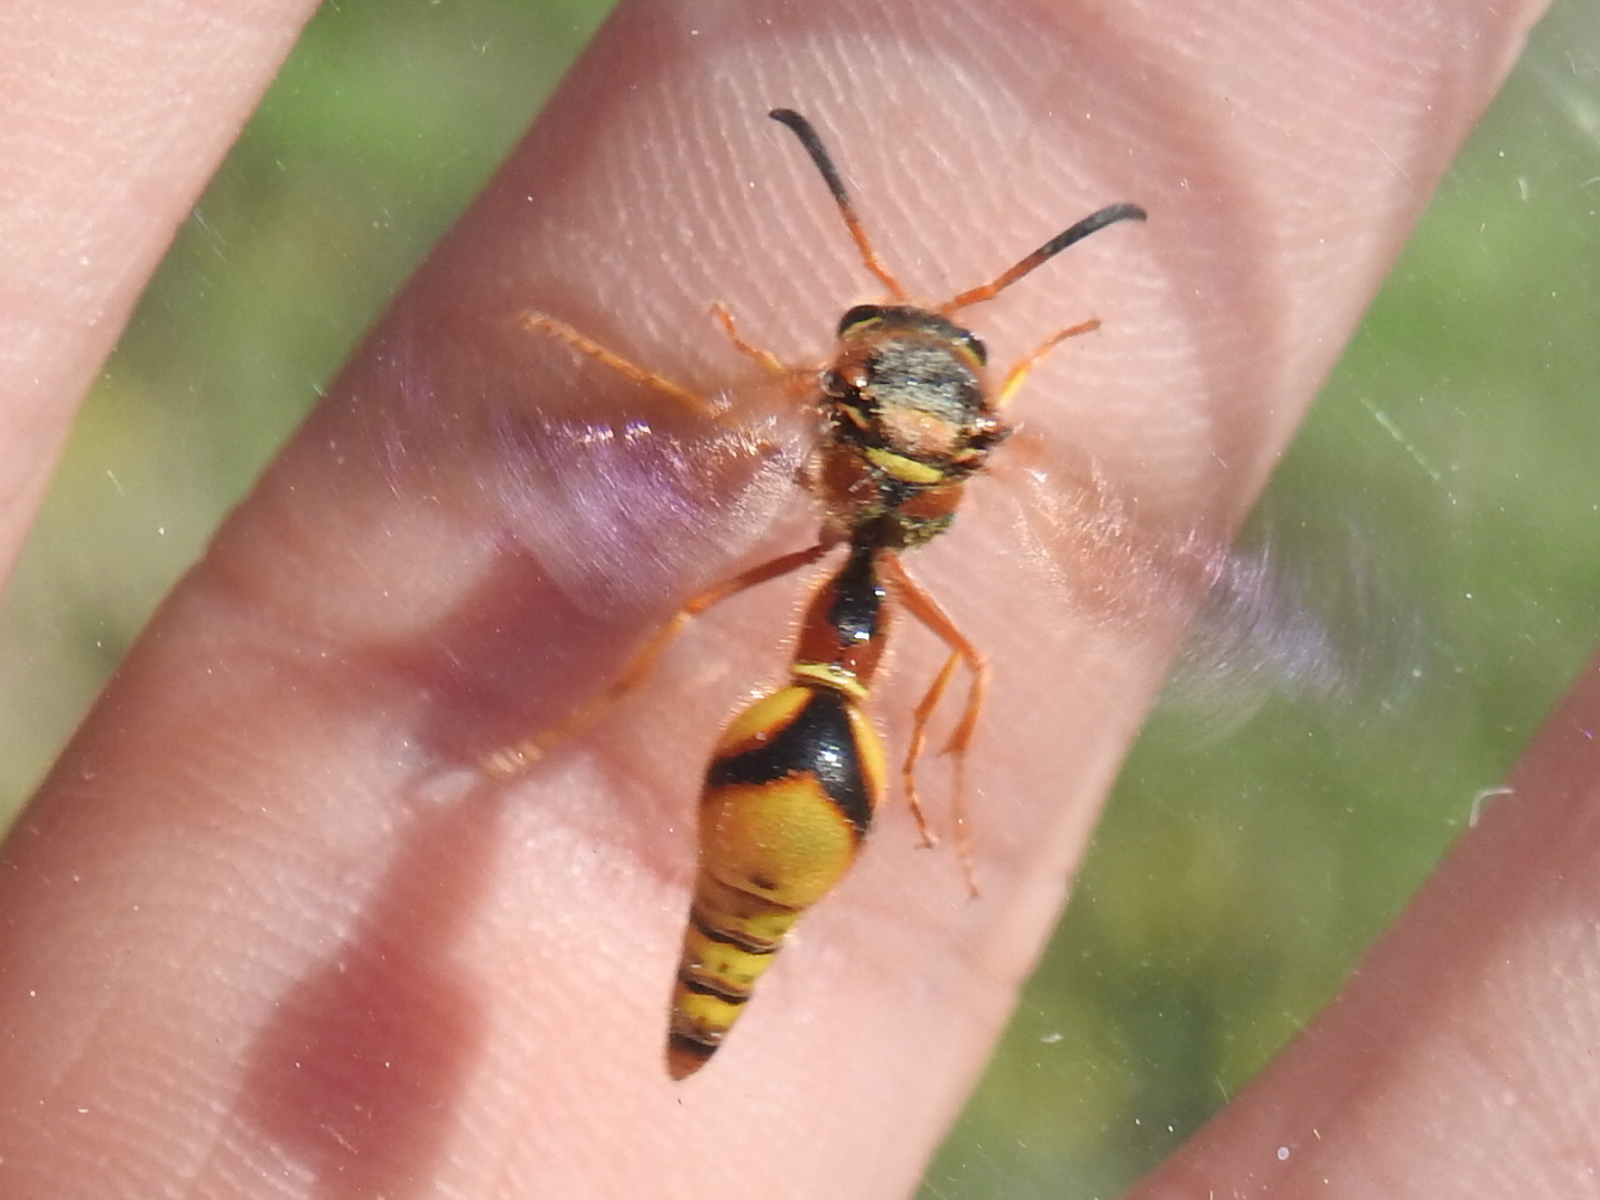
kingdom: Animalia
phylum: Arthropoda
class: Insecta
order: Hymenoptera
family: Vespidae
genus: Eumenes
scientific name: Eumenes bollii
